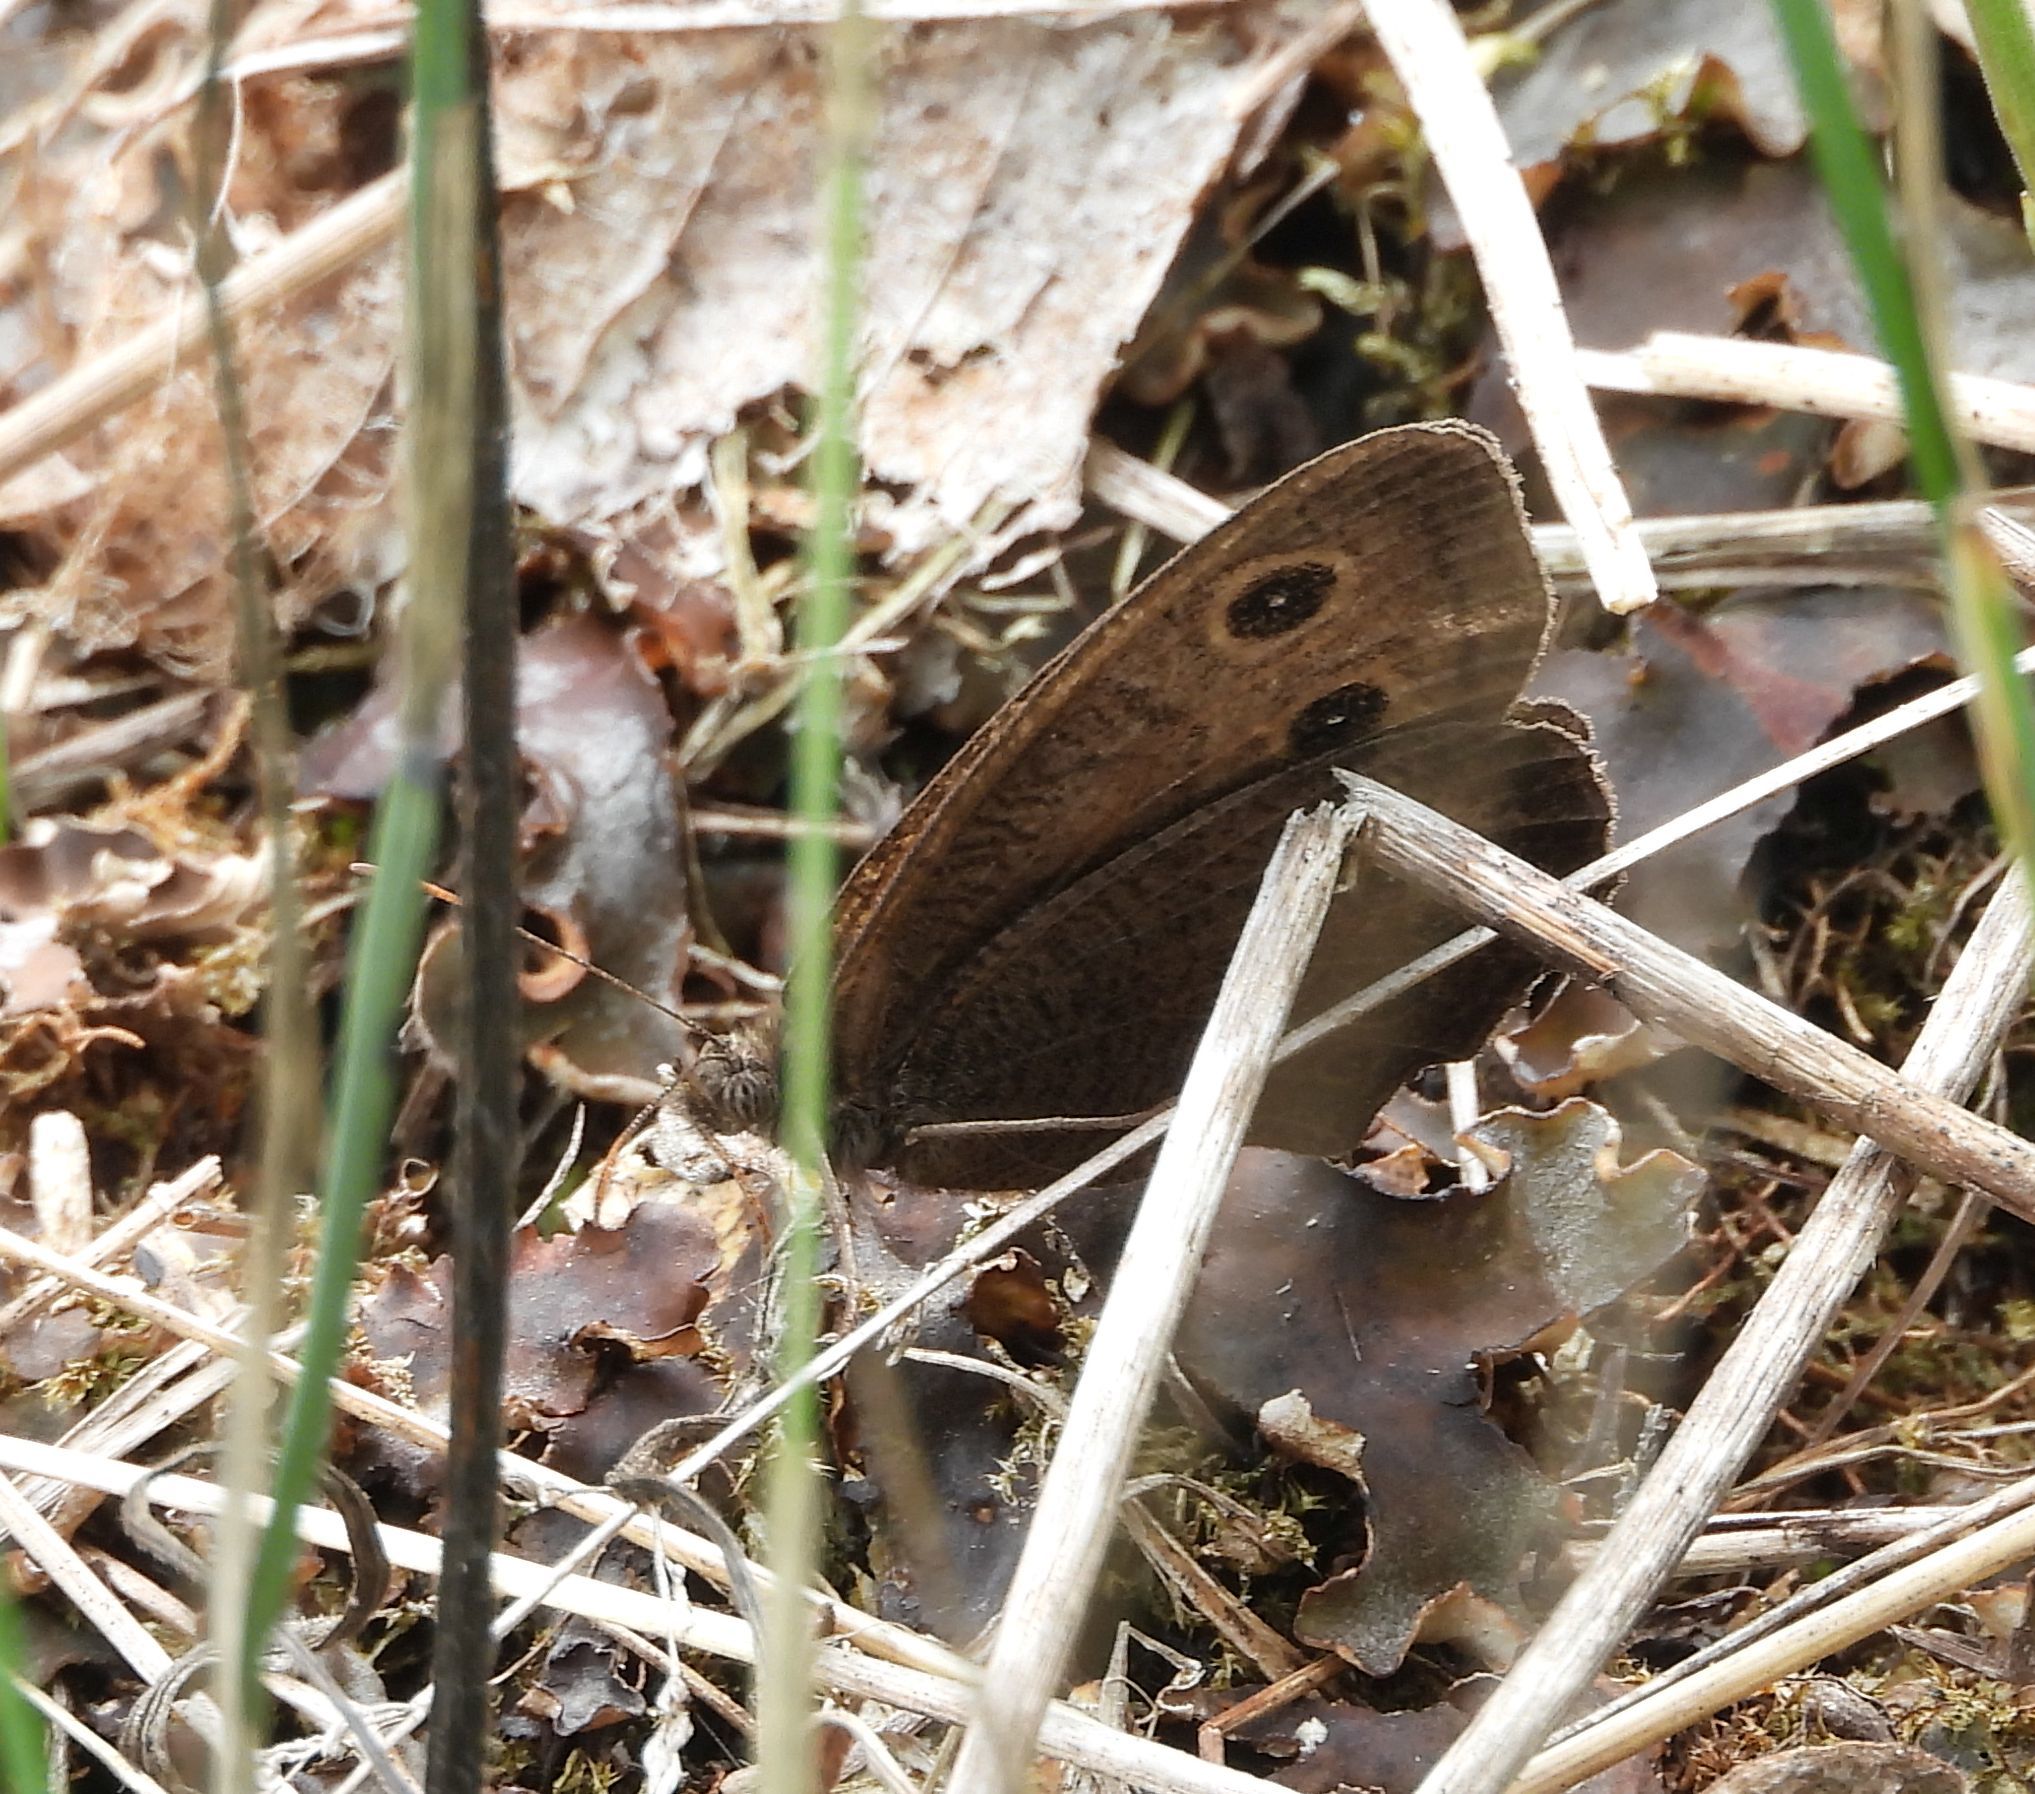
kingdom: Animalia
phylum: Arthropoda
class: Insecta
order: Lepidoptera
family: Nymphalidae
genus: Cercyonis
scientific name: Cercyonis pegala
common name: Common wood-nymph
